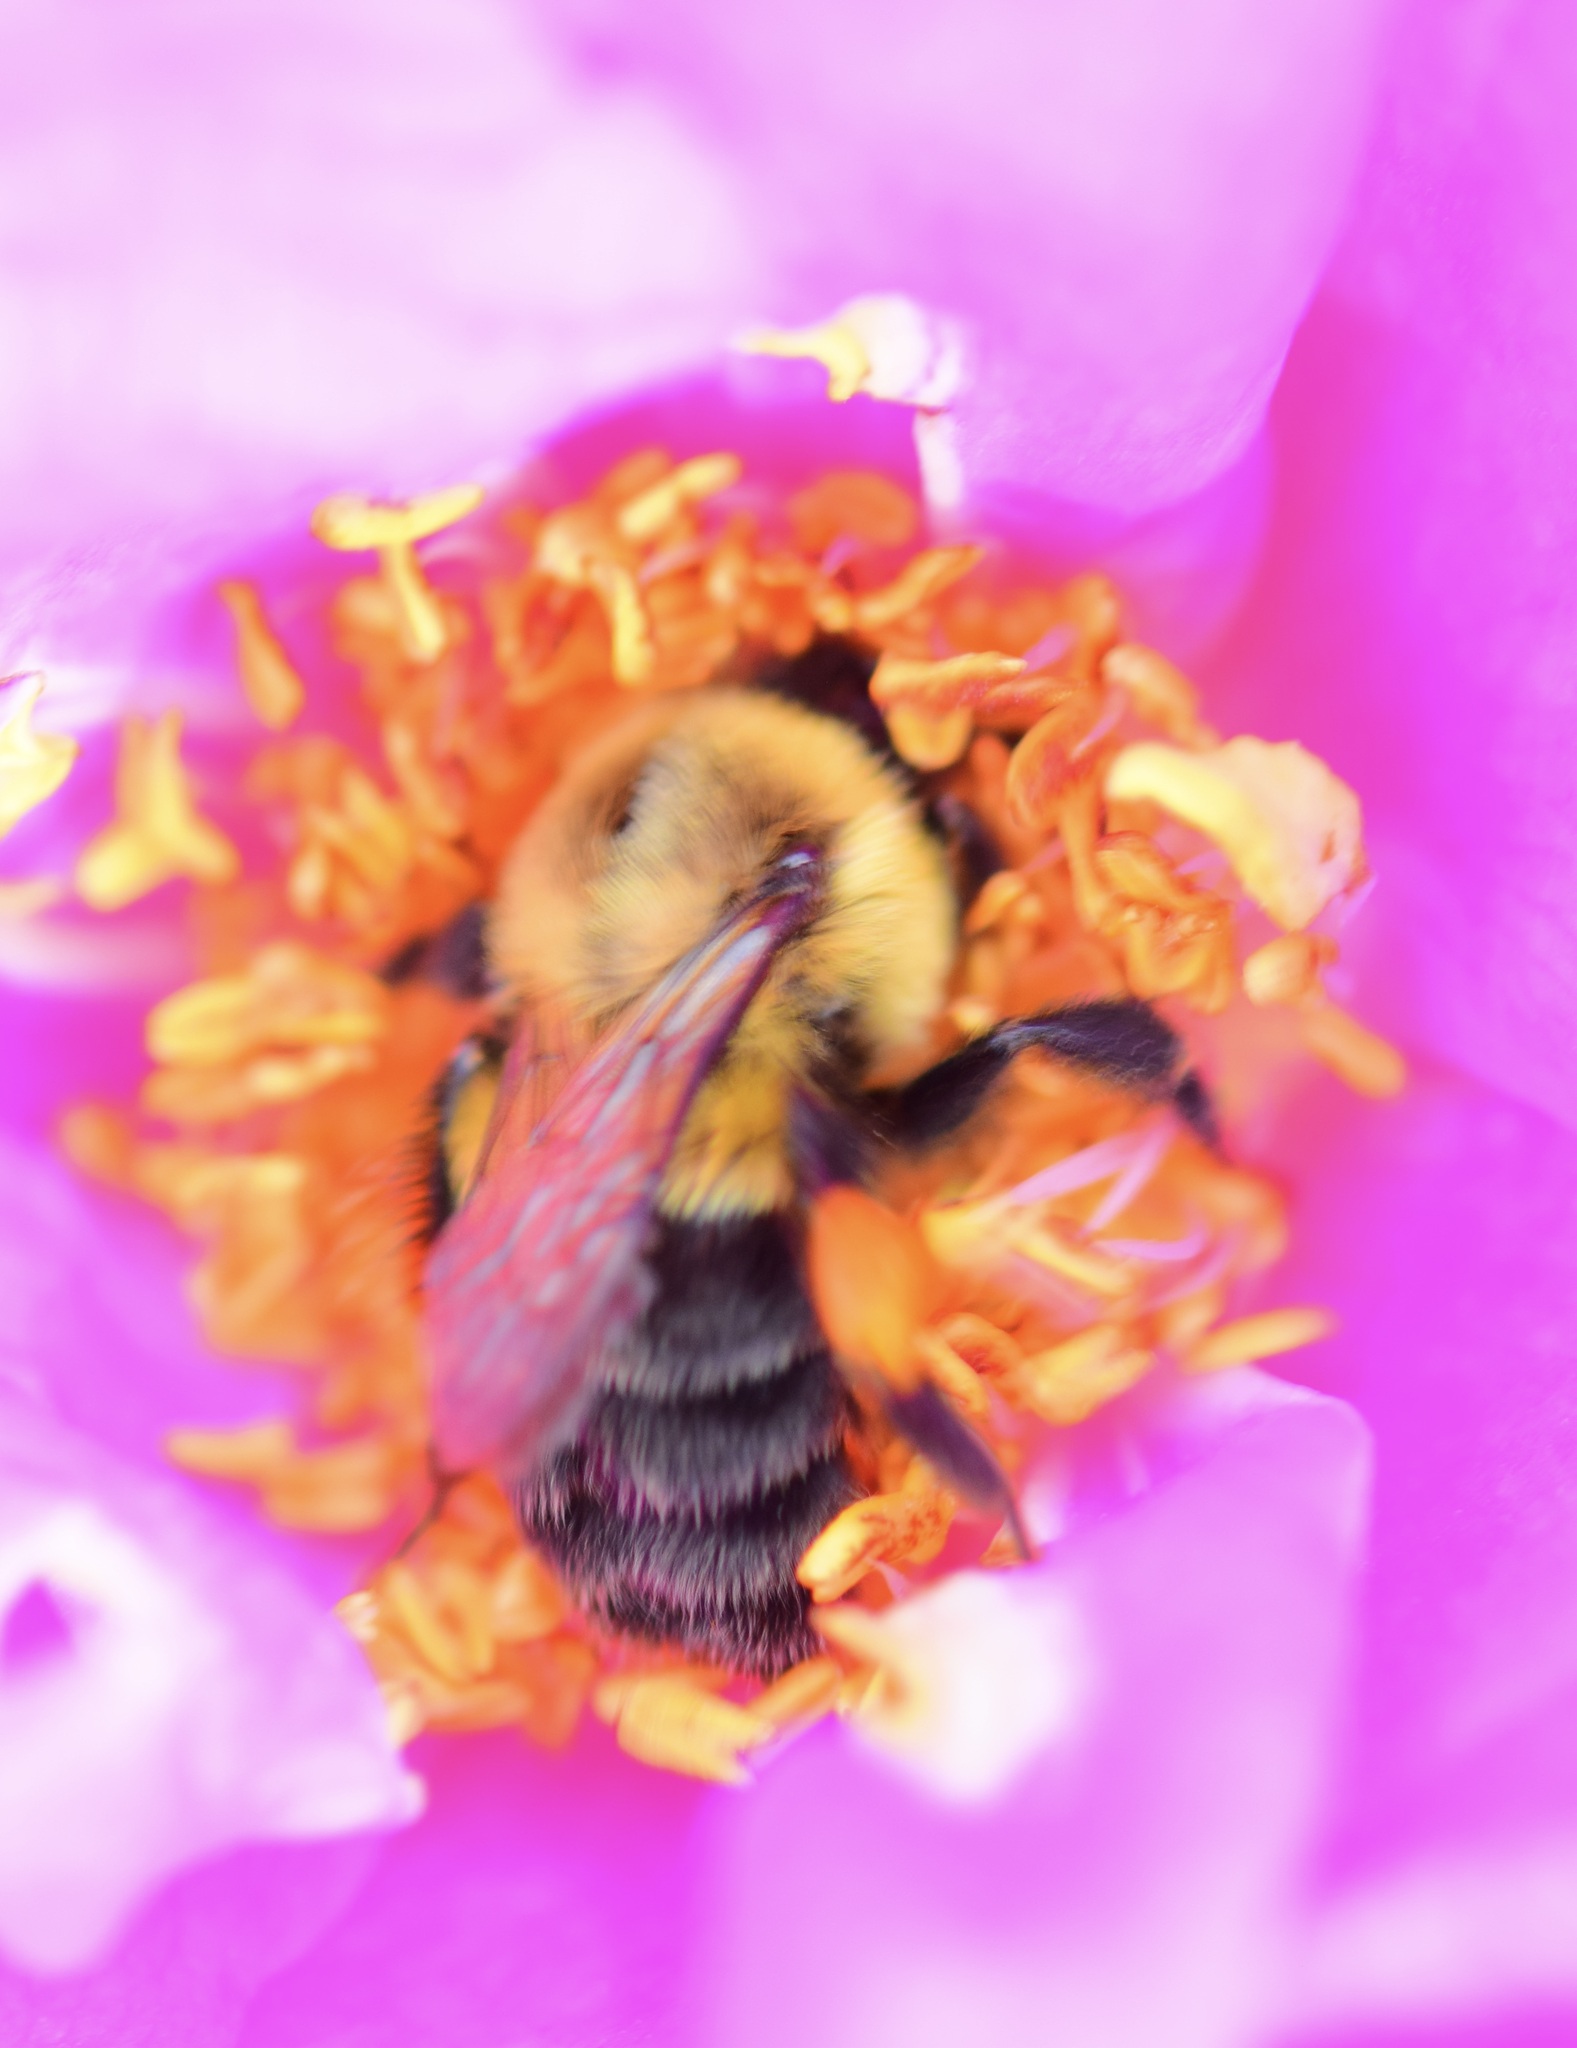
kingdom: Animalia
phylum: Arthropoda
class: Insecta
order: Hymenoptera
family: Apidae
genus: Bombus
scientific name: Bombus impatiens
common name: Common eastern bumble bee
